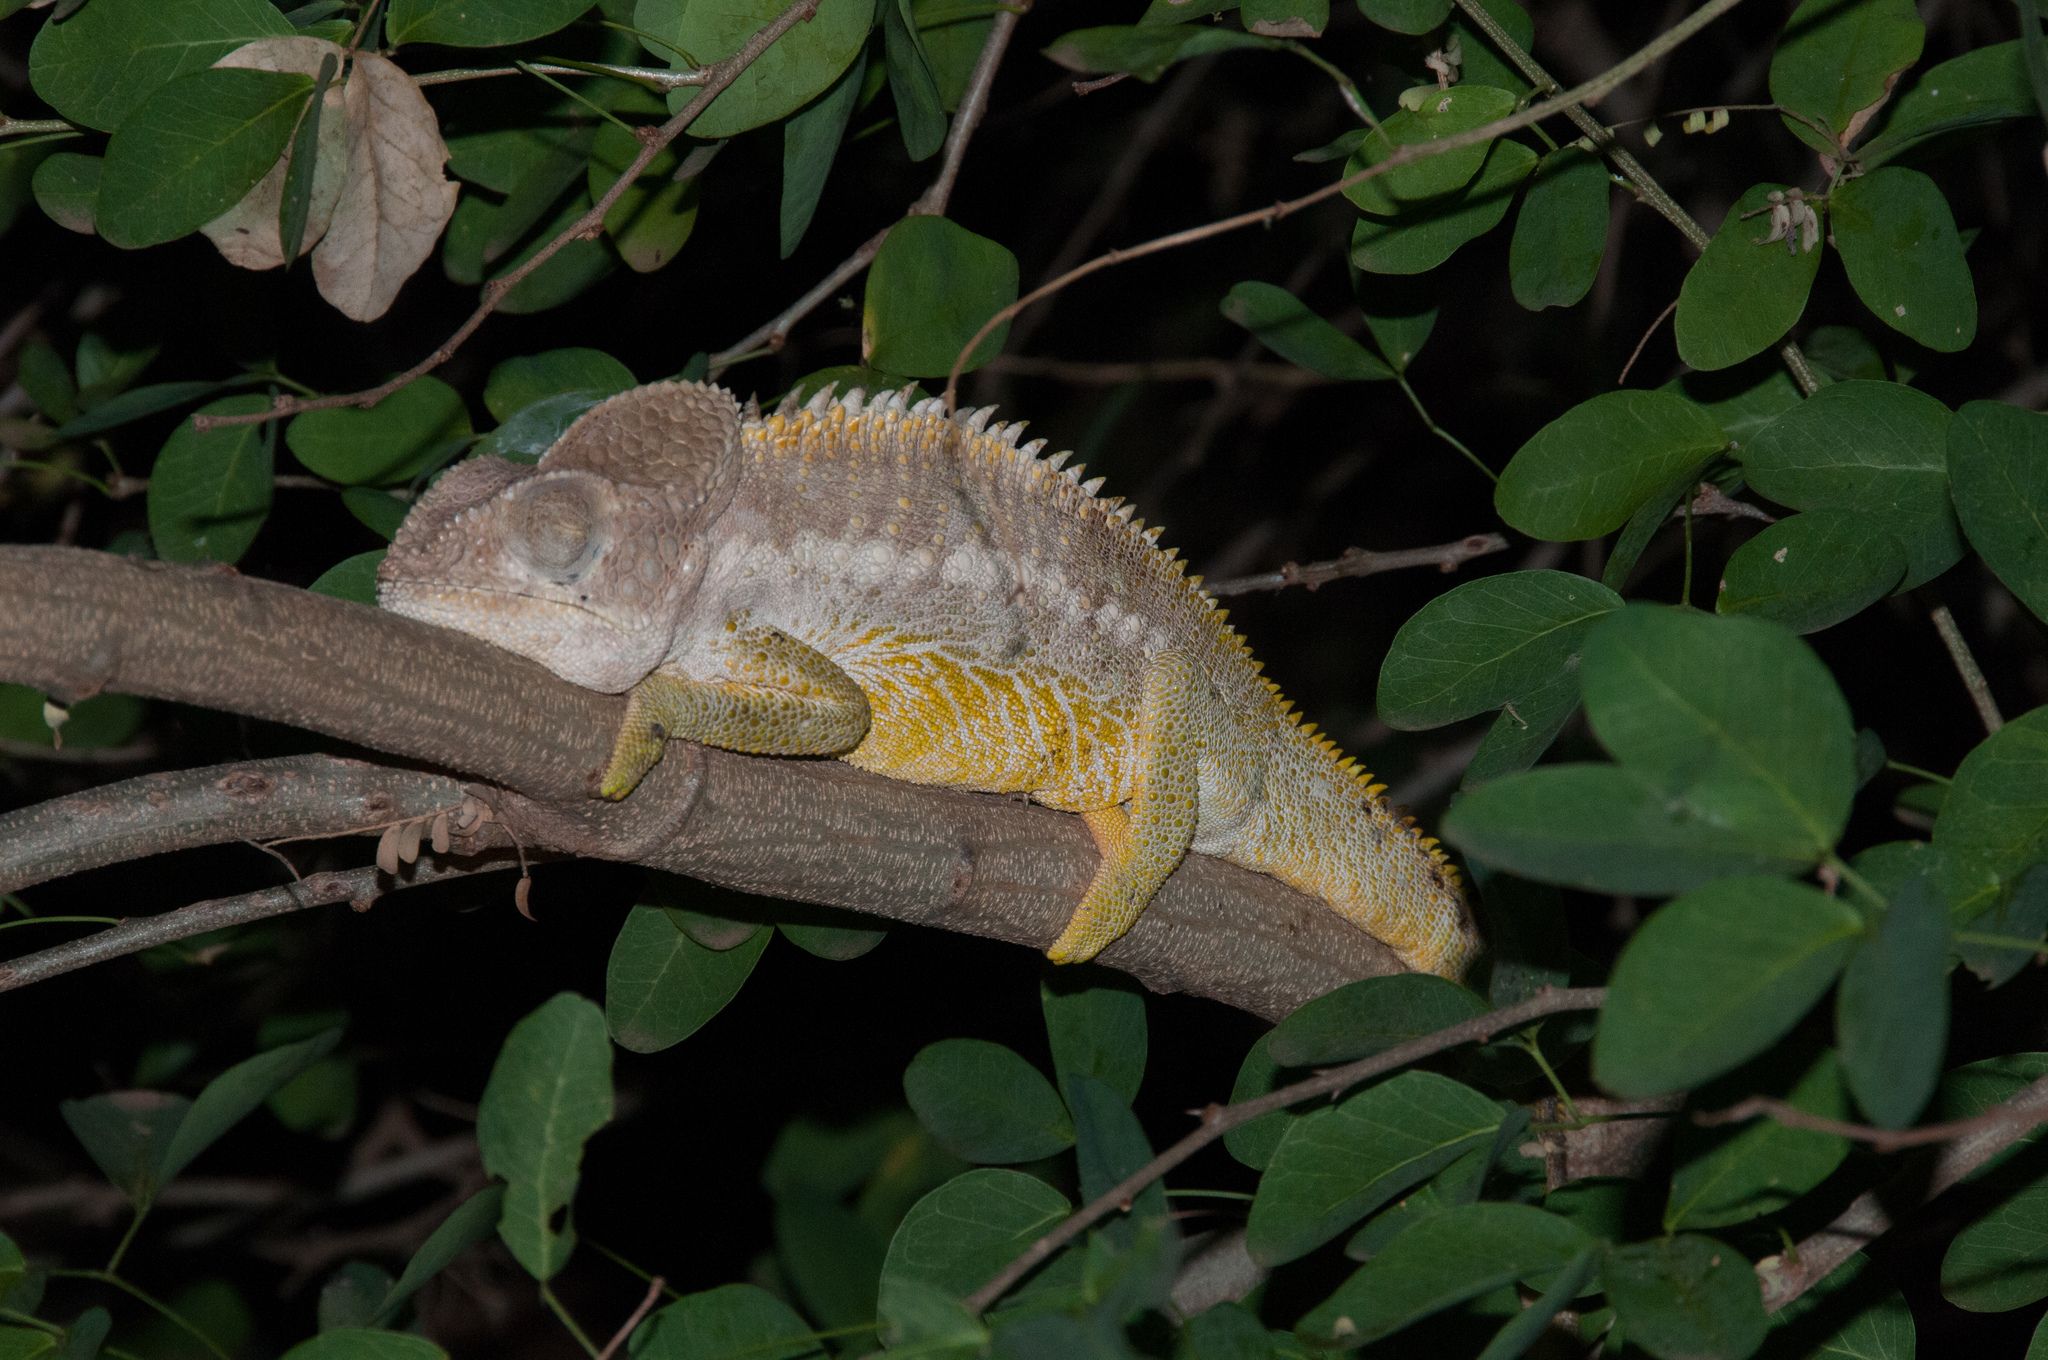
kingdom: Animalia
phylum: Chordata
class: Squamata
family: Chamaeleonidae
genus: Furcifer
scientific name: Furcifer verrucosus
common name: Warty chameleon
